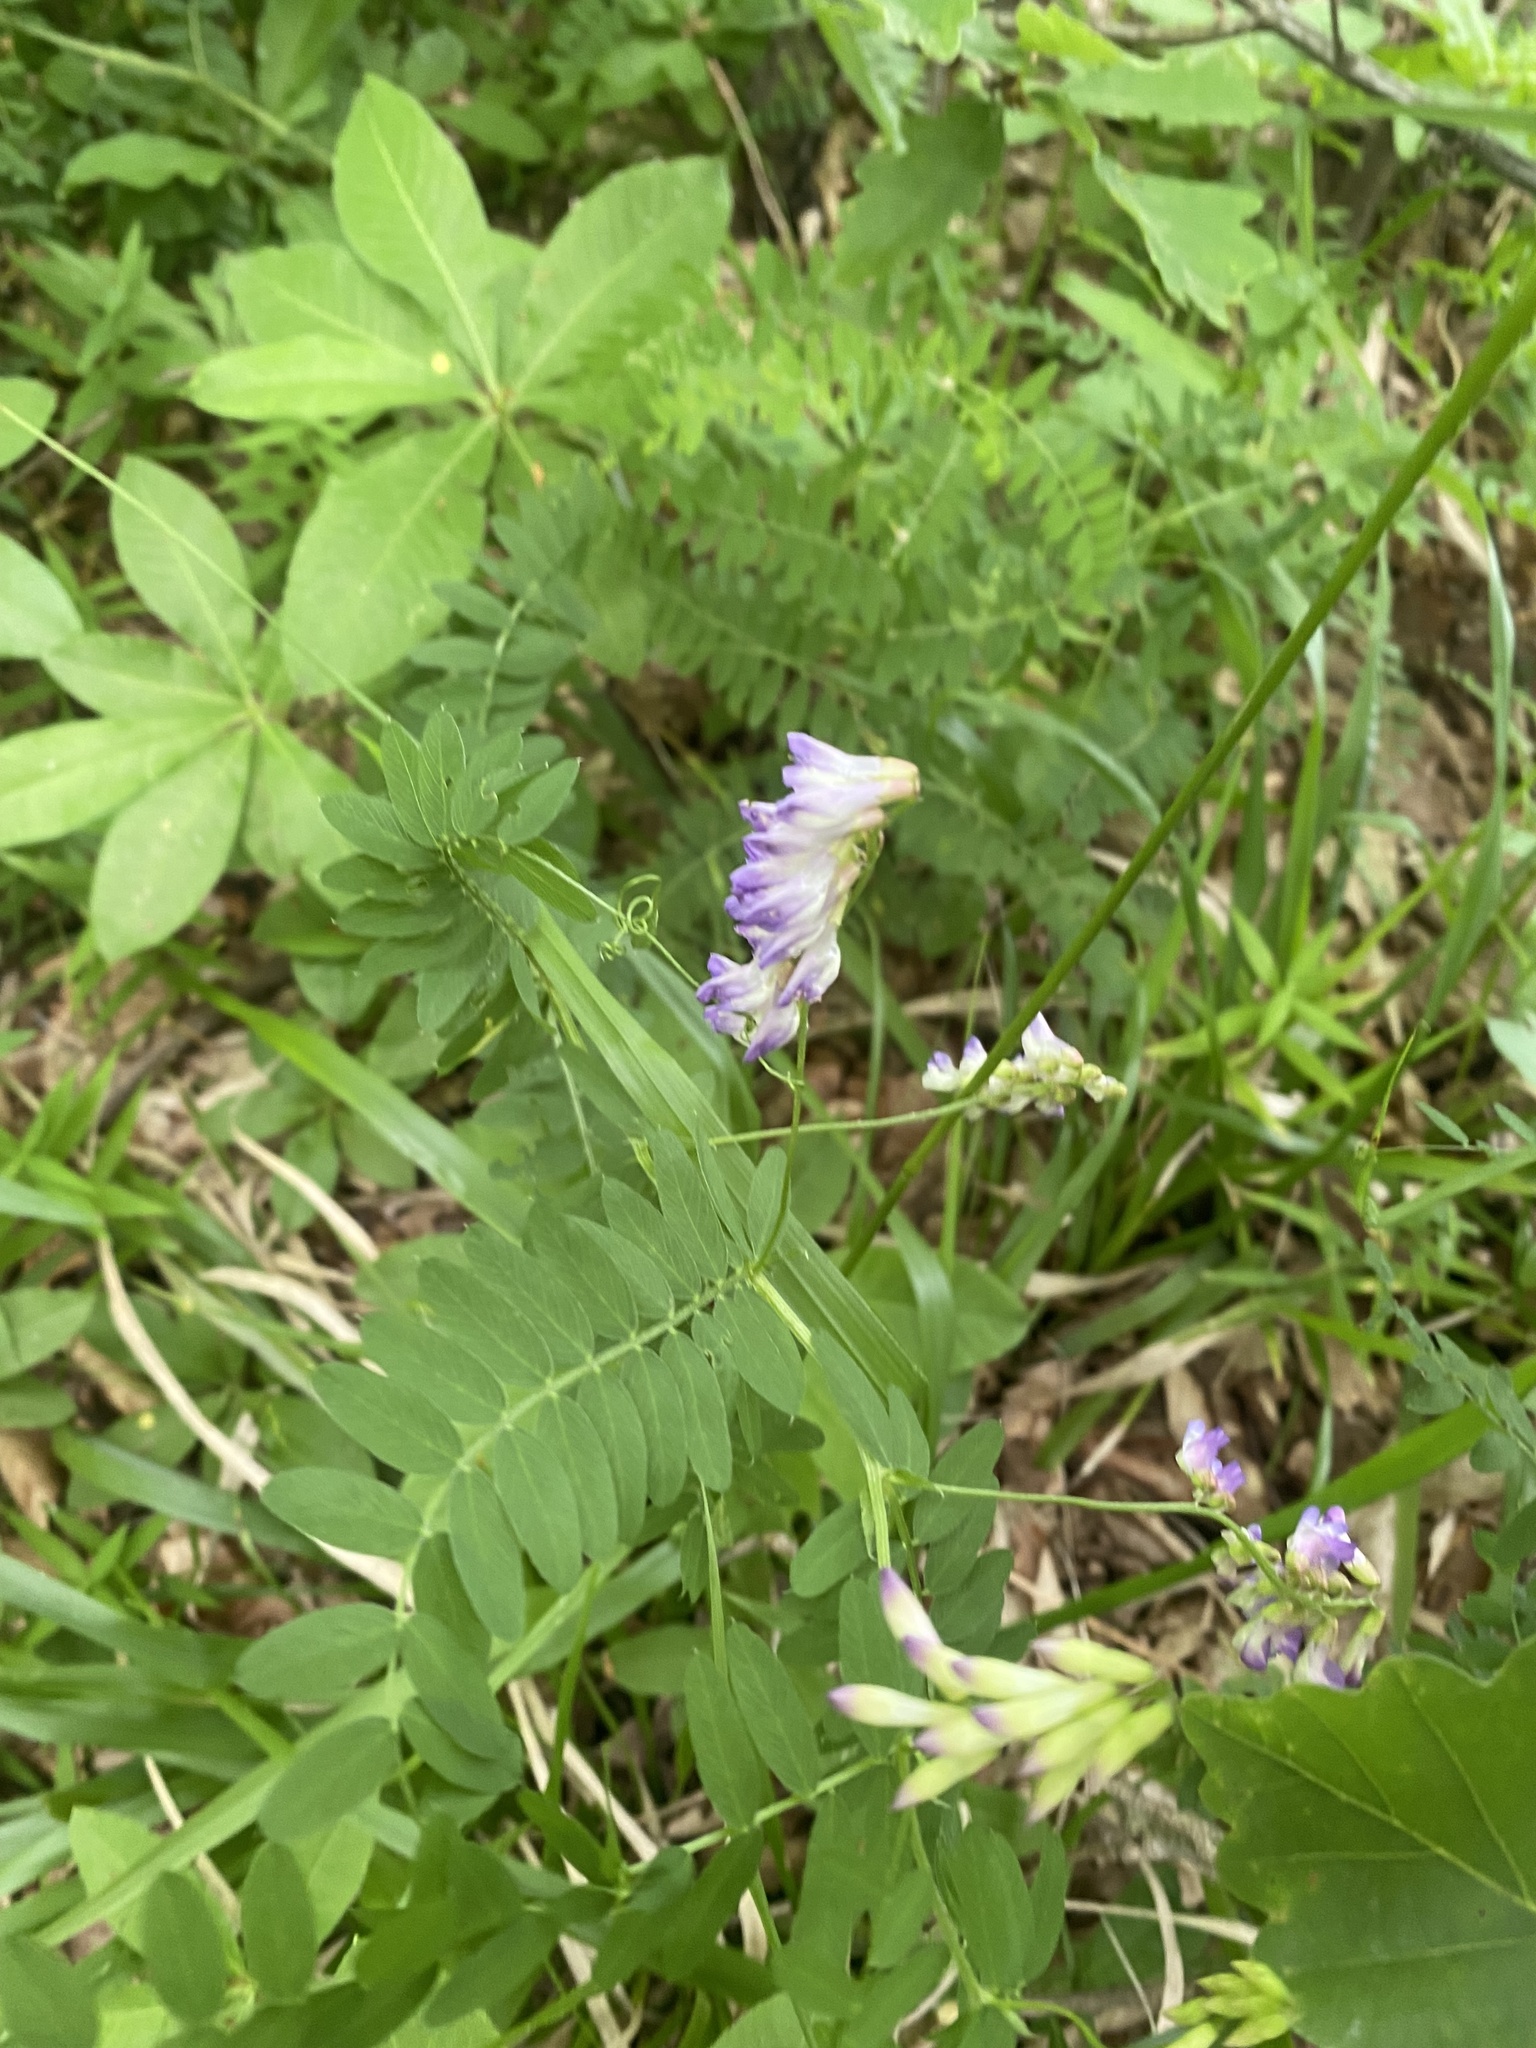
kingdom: Plantae
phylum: Tracheophyta
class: Magnoliopsida
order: Fabales
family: Fabaceae
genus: Vicia
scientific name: Vicia biennis
